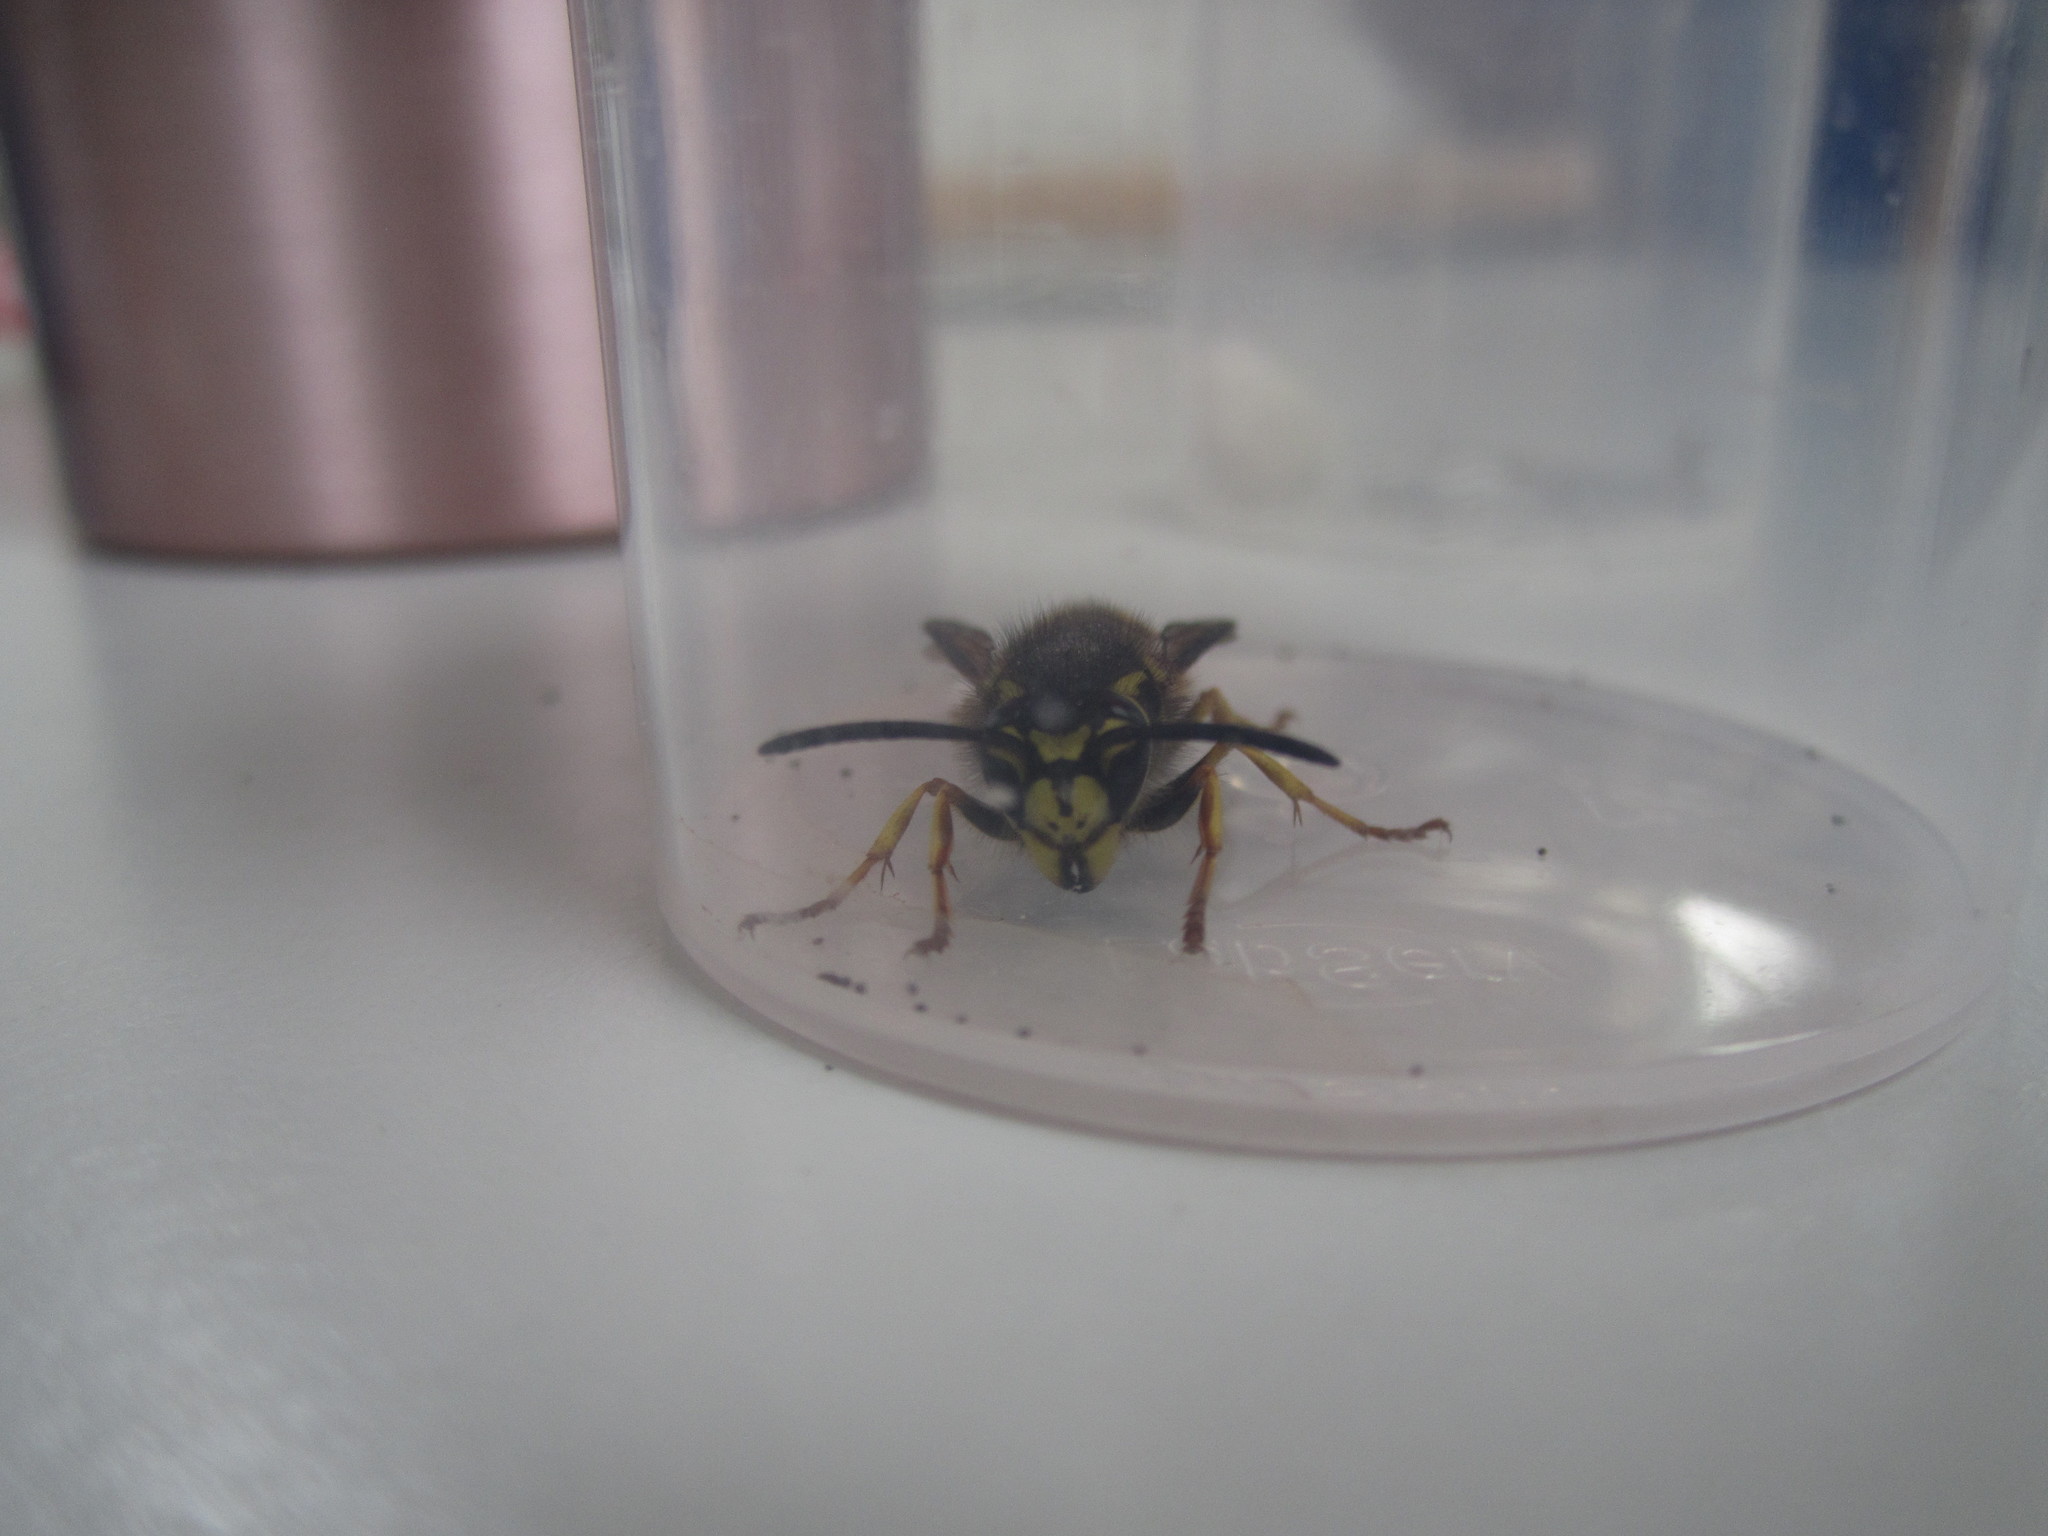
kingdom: Animalia
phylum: Arthropoda
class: Insecta
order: Hymenoptera
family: Vespidae
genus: Vespula
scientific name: Vespula germanica
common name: German wasp
